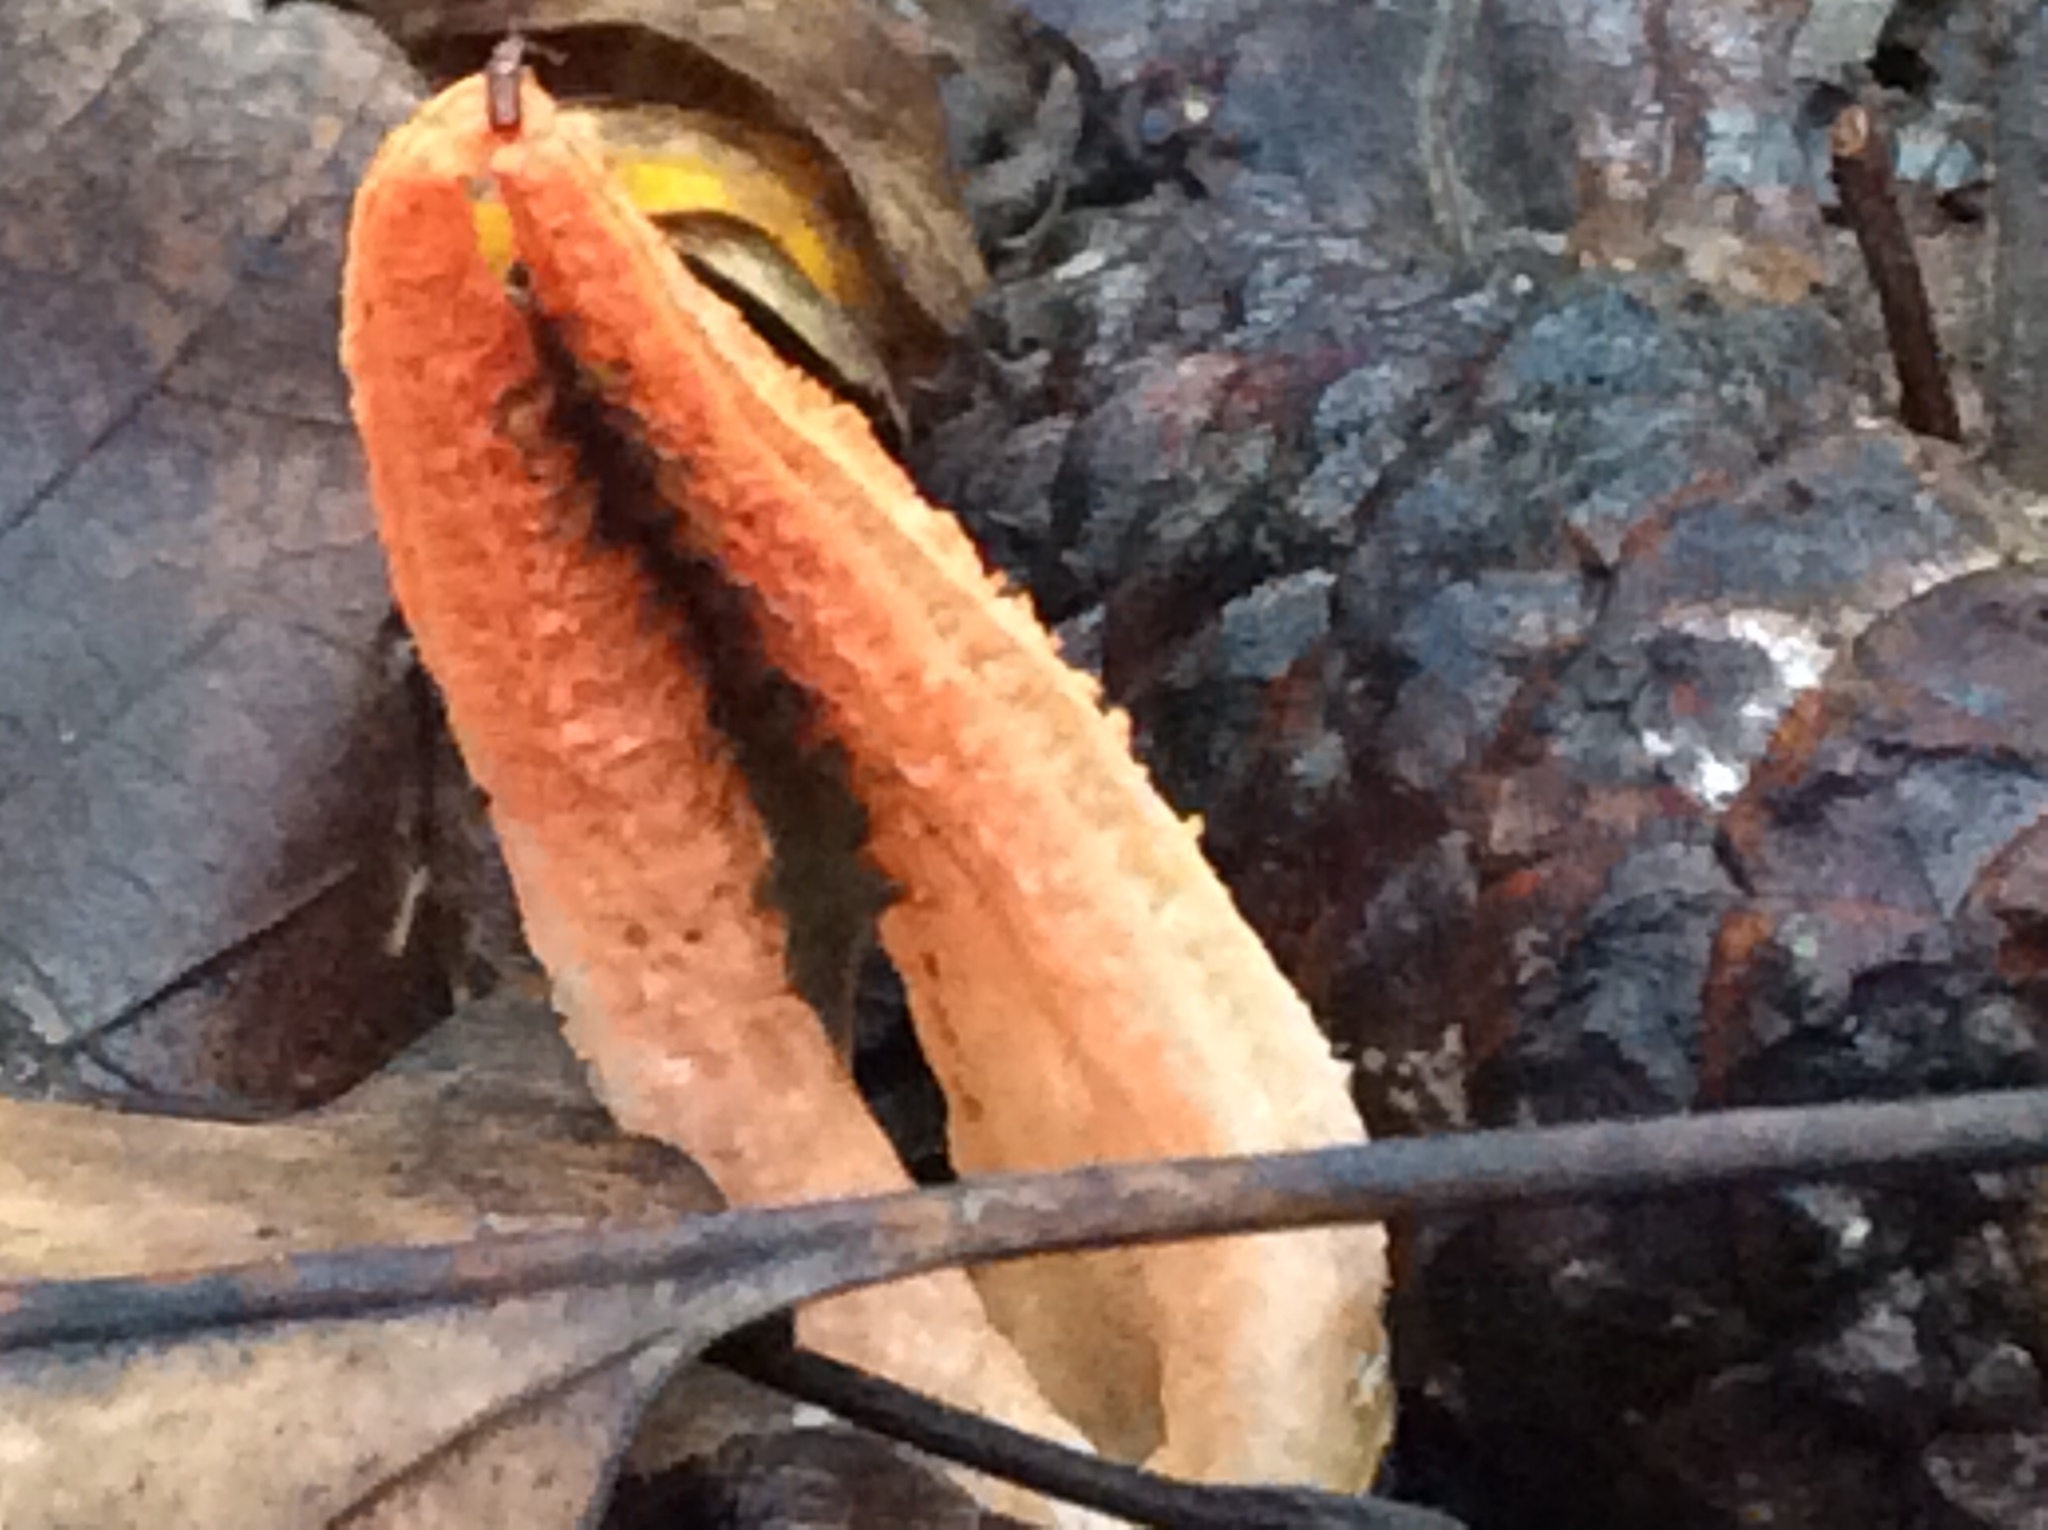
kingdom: Fungi
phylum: Basidiomycota
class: Agaricomycetes
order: Phallales
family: Phallaceae
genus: Pseudocolus
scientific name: Pseudocolus fusiformis
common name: Stinky squid
